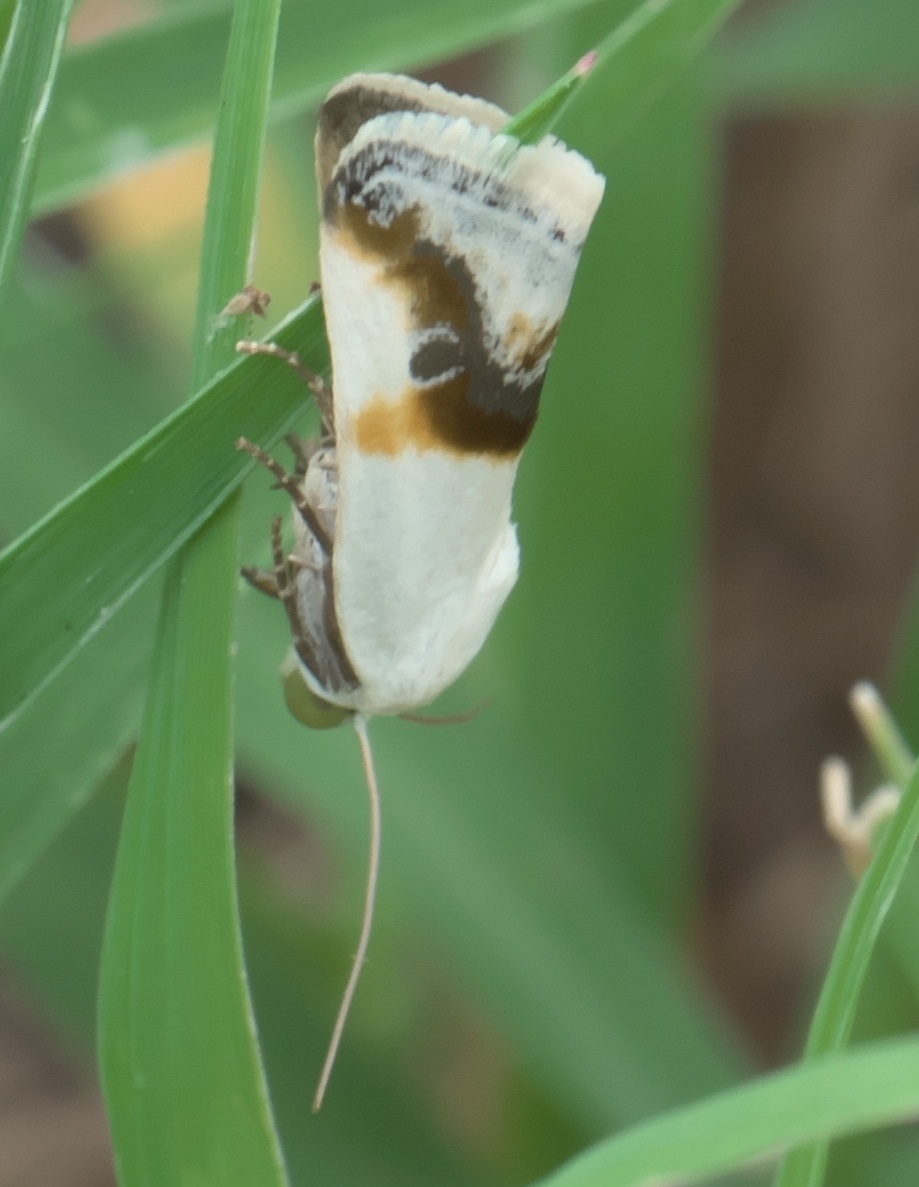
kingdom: Animalia
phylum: Arthropoda
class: Insecta
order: Lepidoptera
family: Noctuidae
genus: Acontia
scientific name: Acontia binocula
